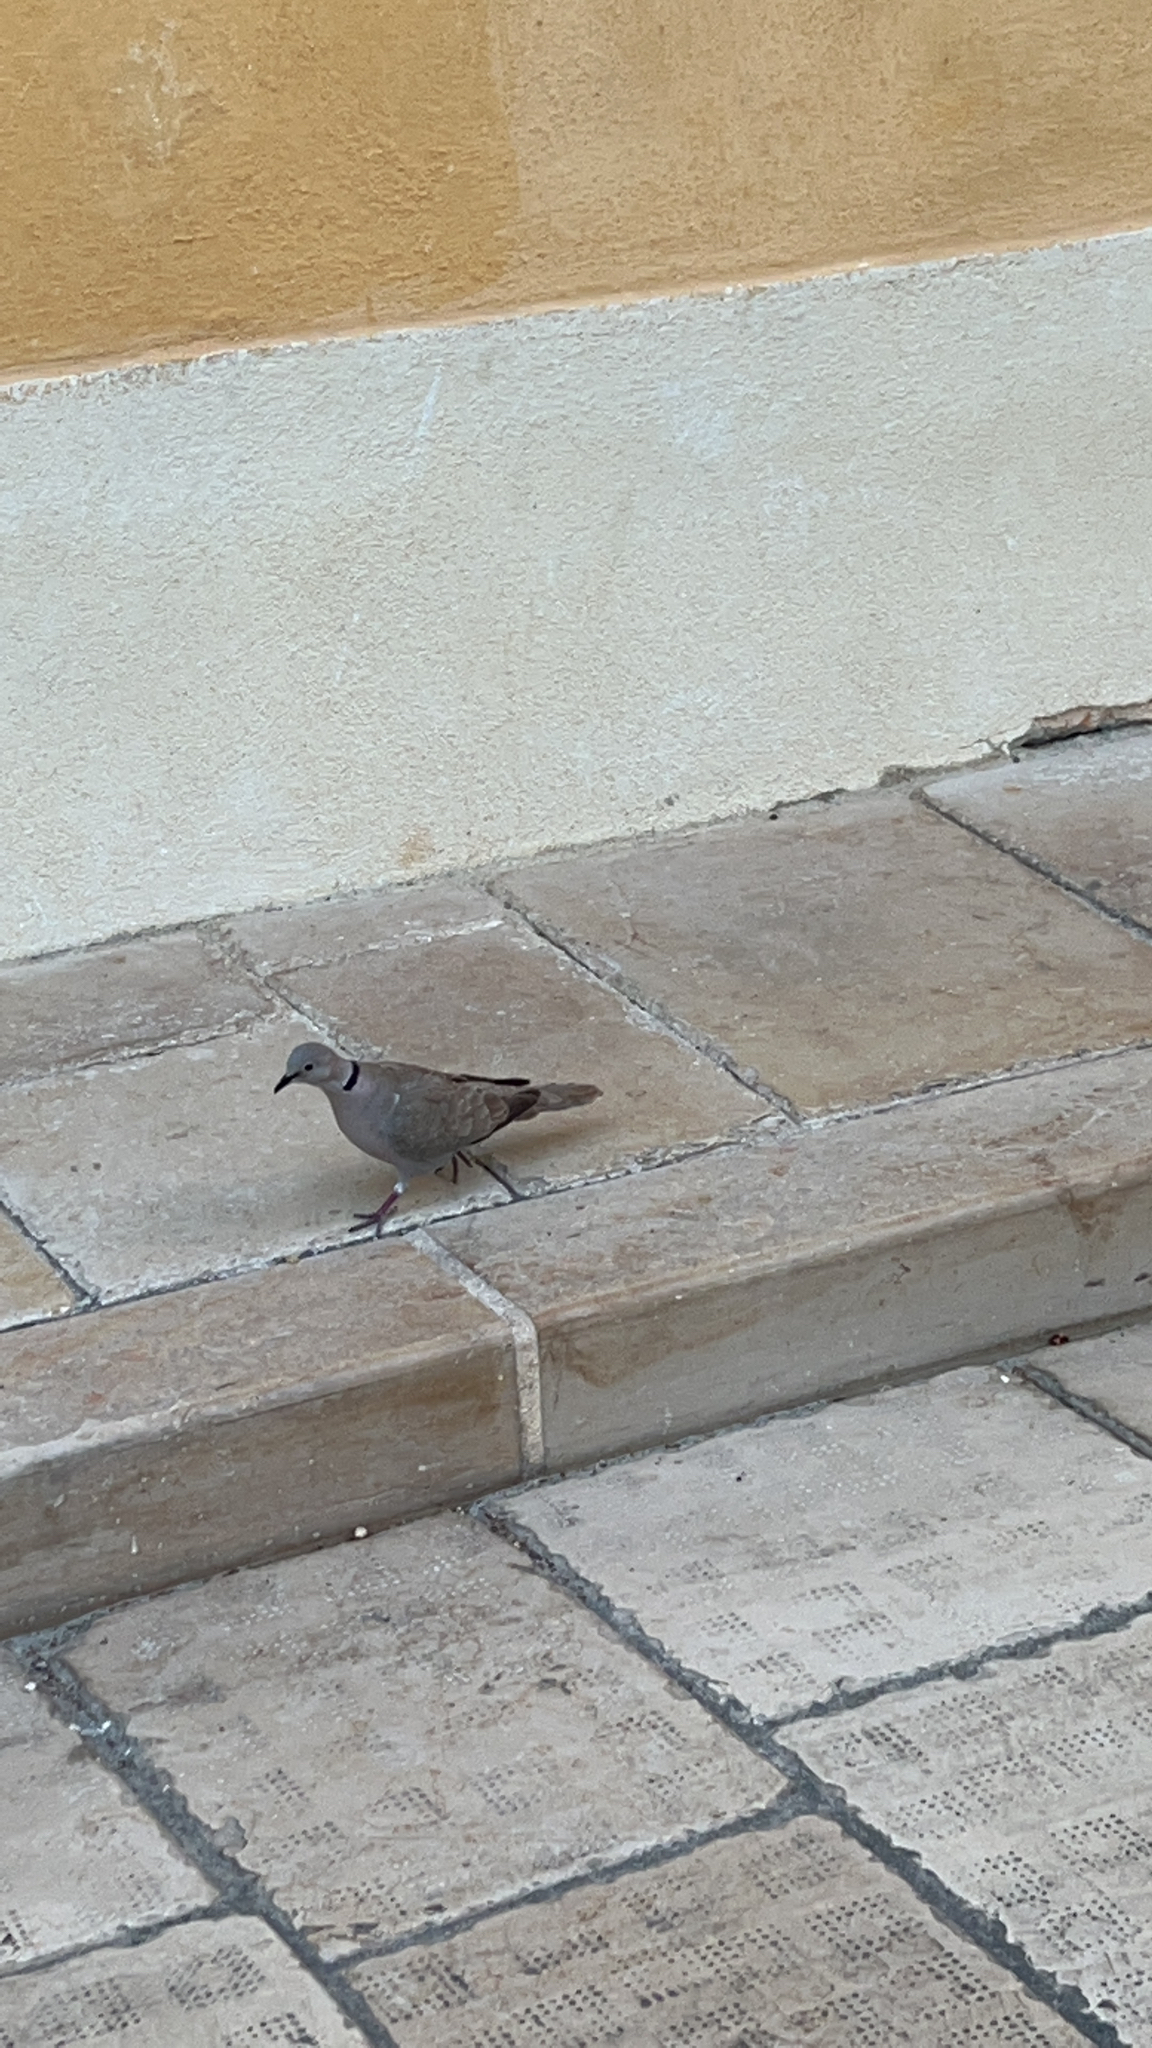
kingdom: Animalia
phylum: Chordata
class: Aves
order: Columbiformes
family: Columbidae
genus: Streptopelia
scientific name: Streptopelia decaocto
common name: Eurasian collared dove
